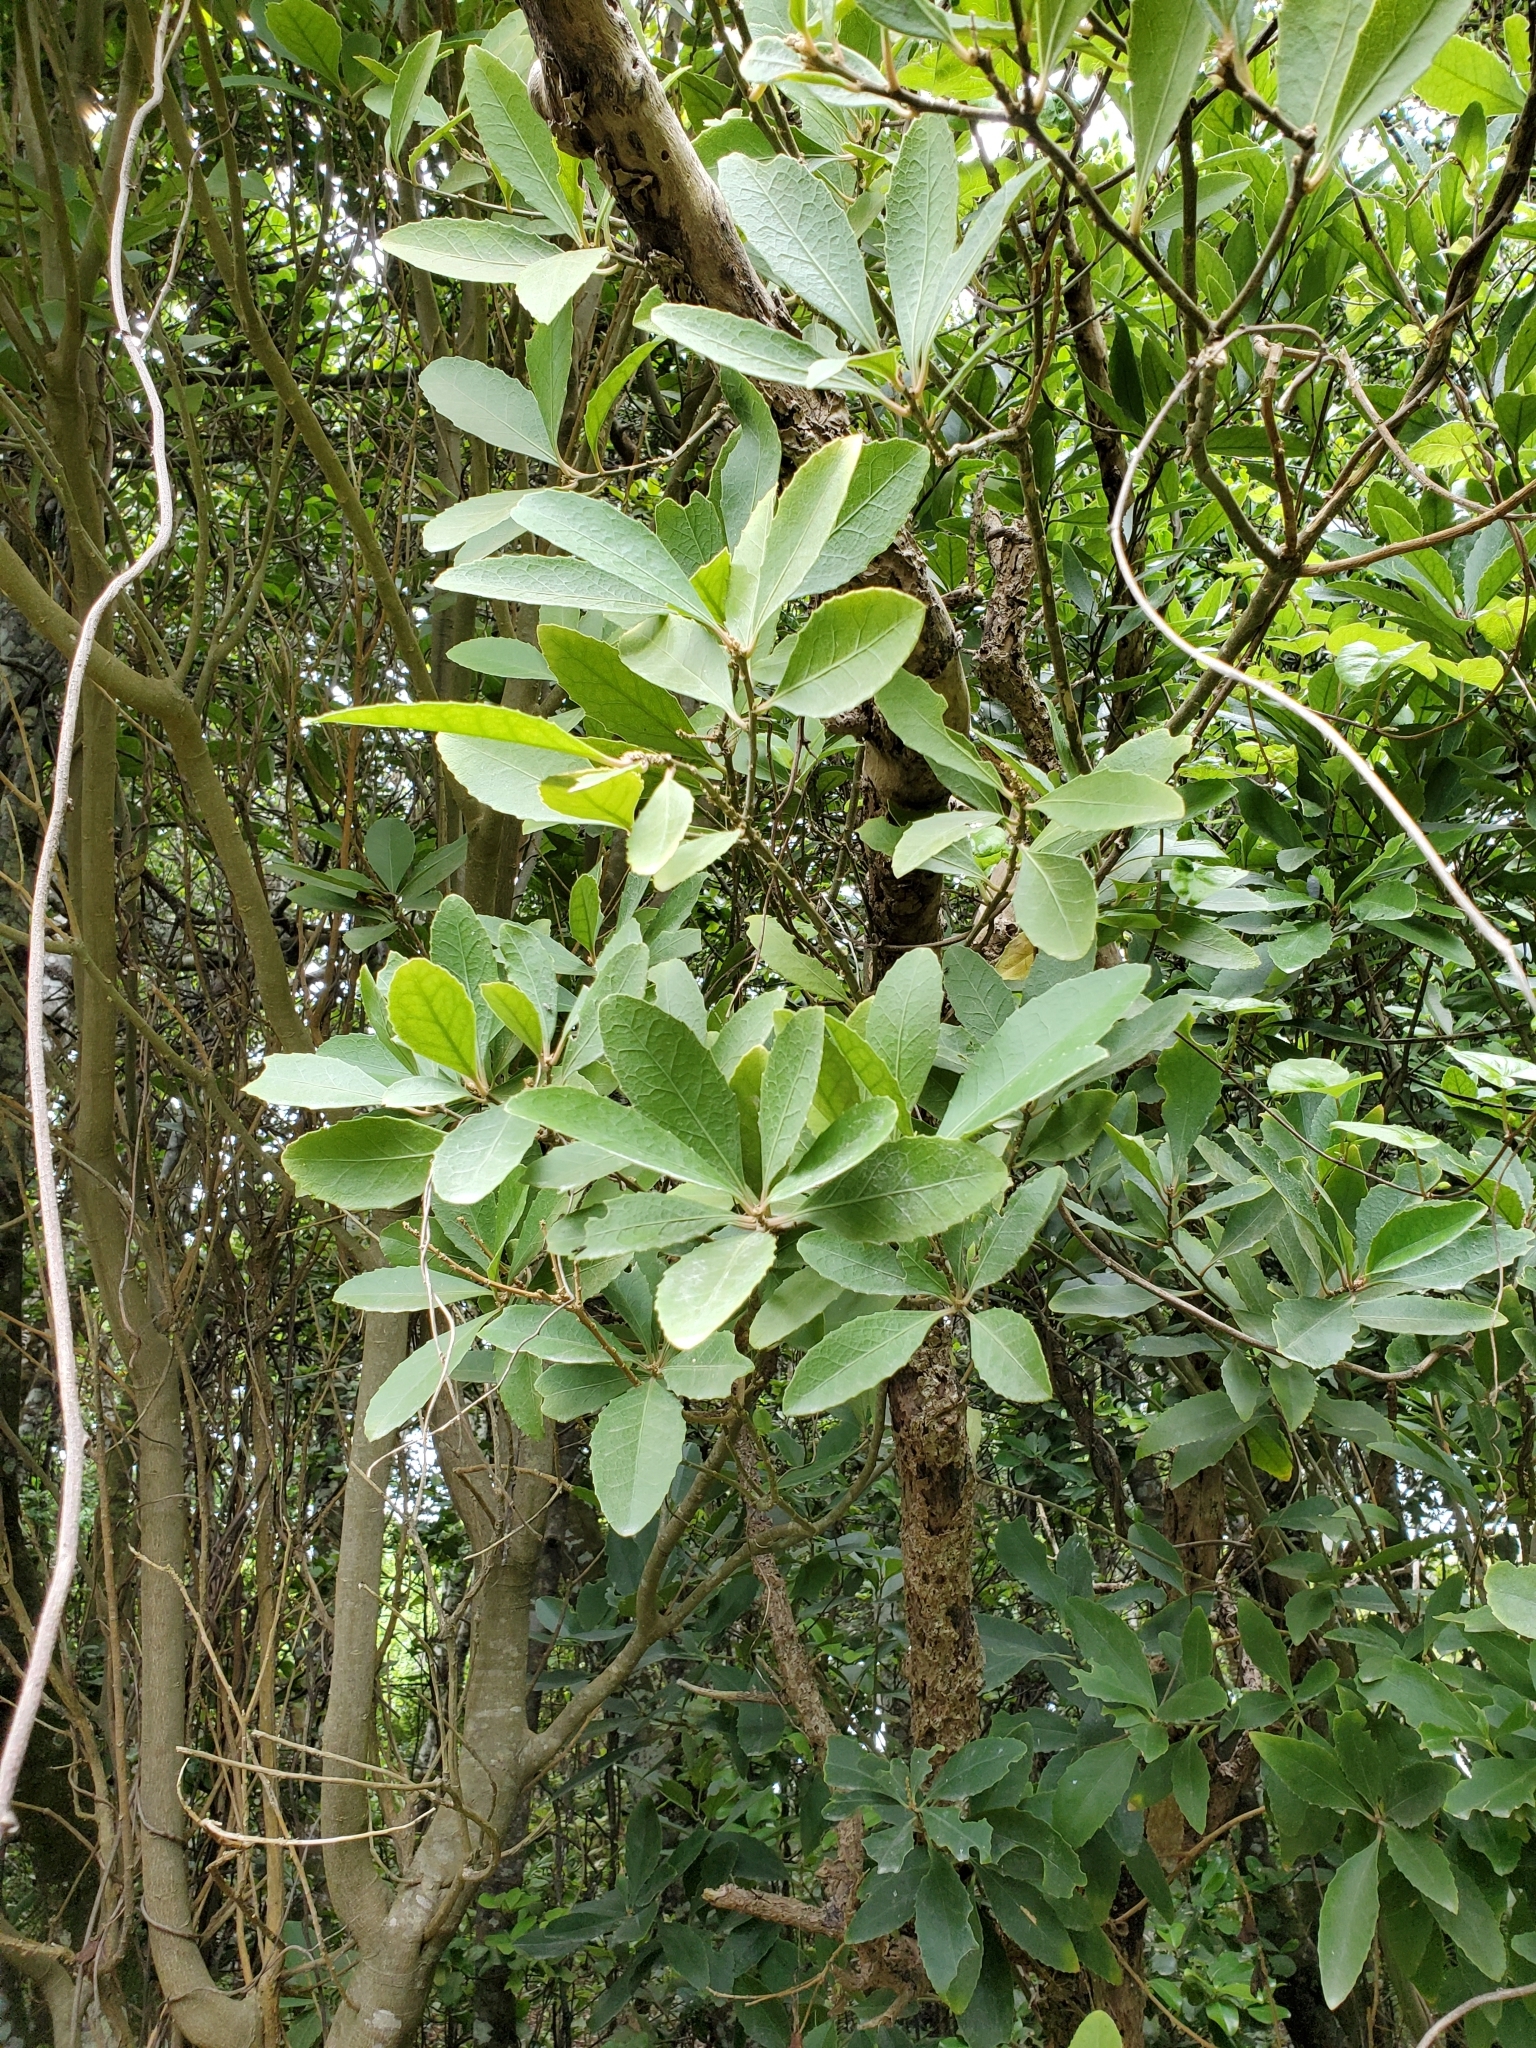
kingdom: Plantae
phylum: Tracheophyta
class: Magnoliopsida
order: Malpighiales
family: Violaceae
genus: Melicytus
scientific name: Melicytus chathamicus
